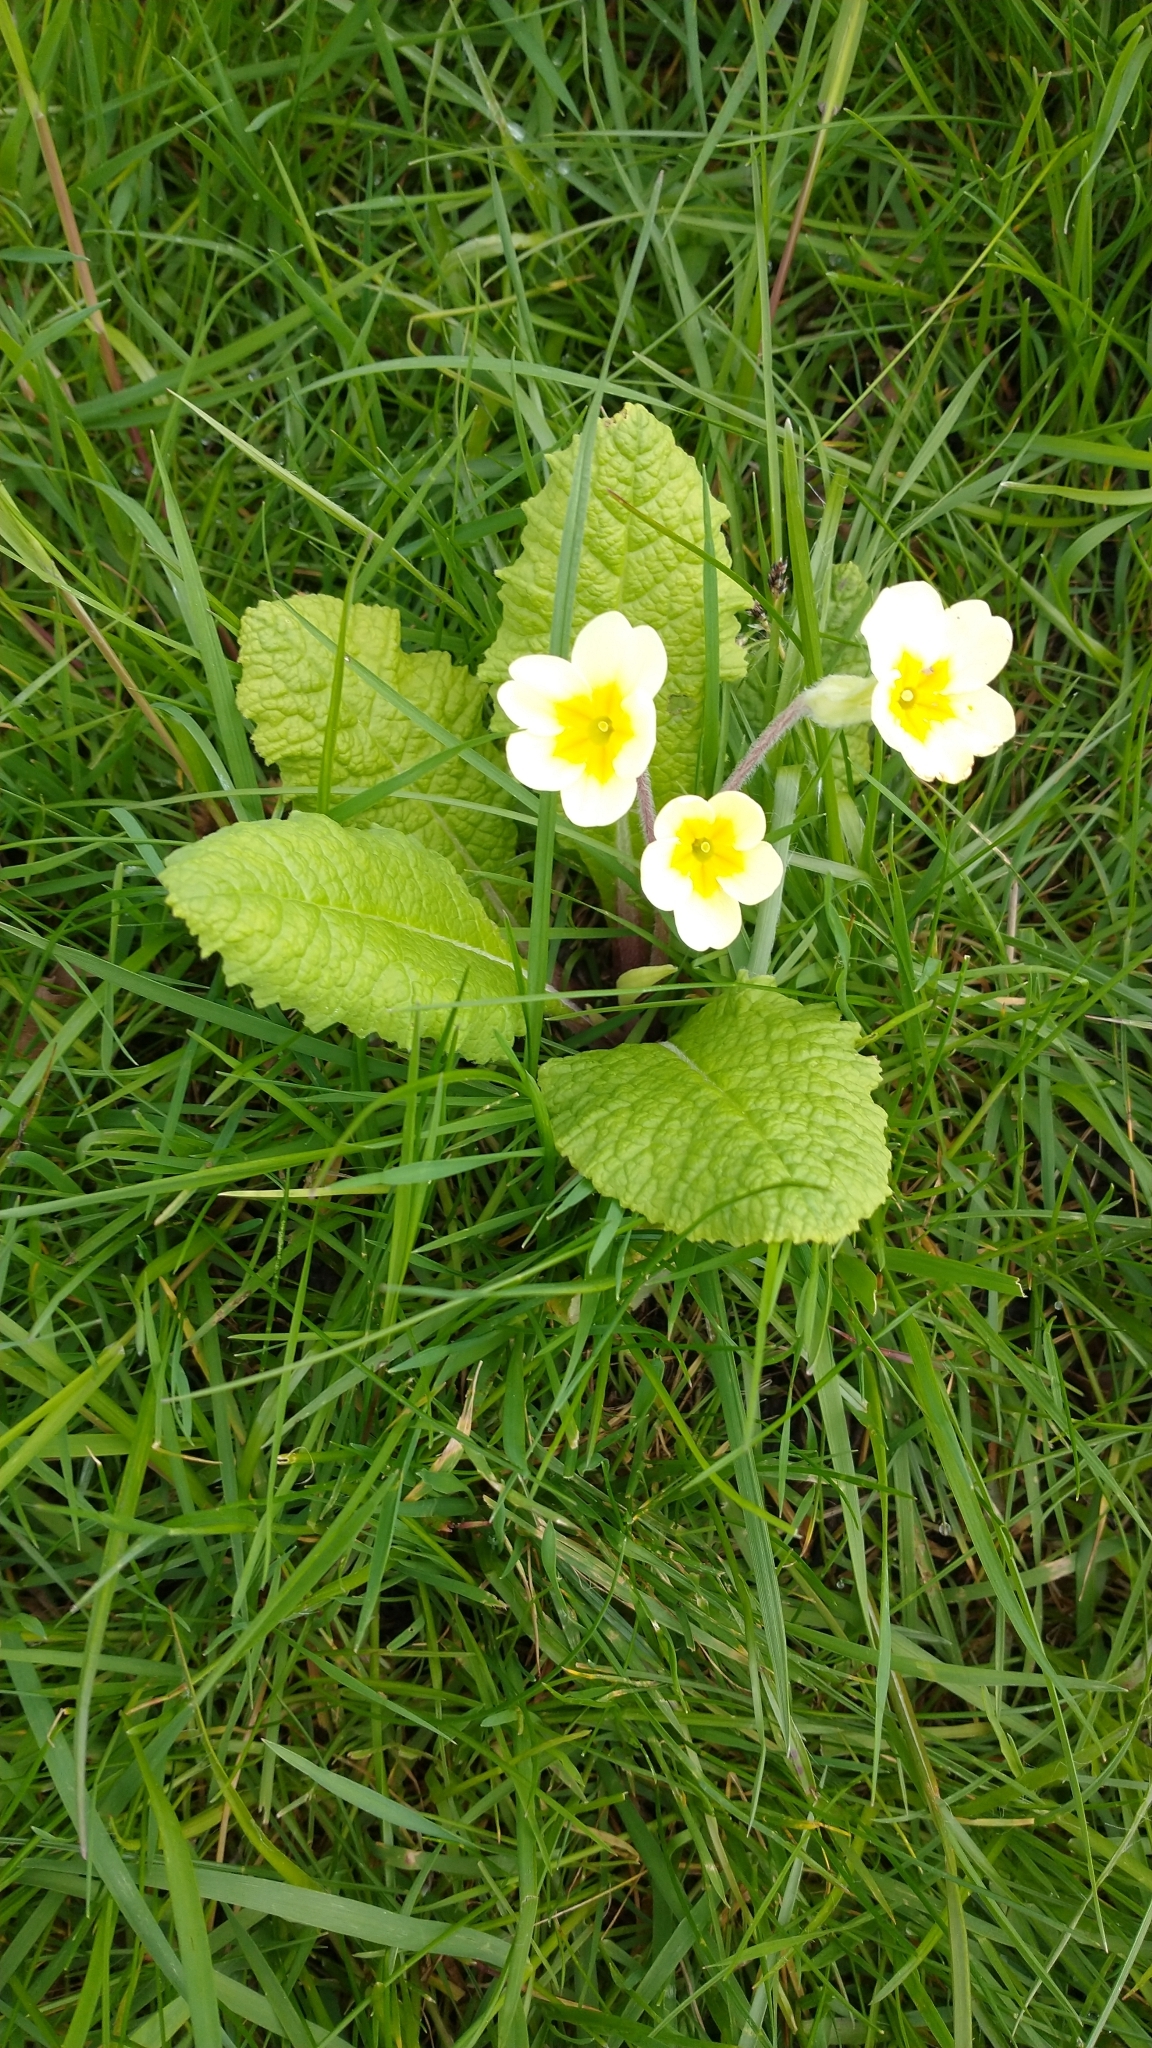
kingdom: Plantae
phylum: Tracheophyta
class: Magnoliopsida
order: Ericales
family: Primulaceae
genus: Primula
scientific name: Primula vulgaris
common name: Primrose
